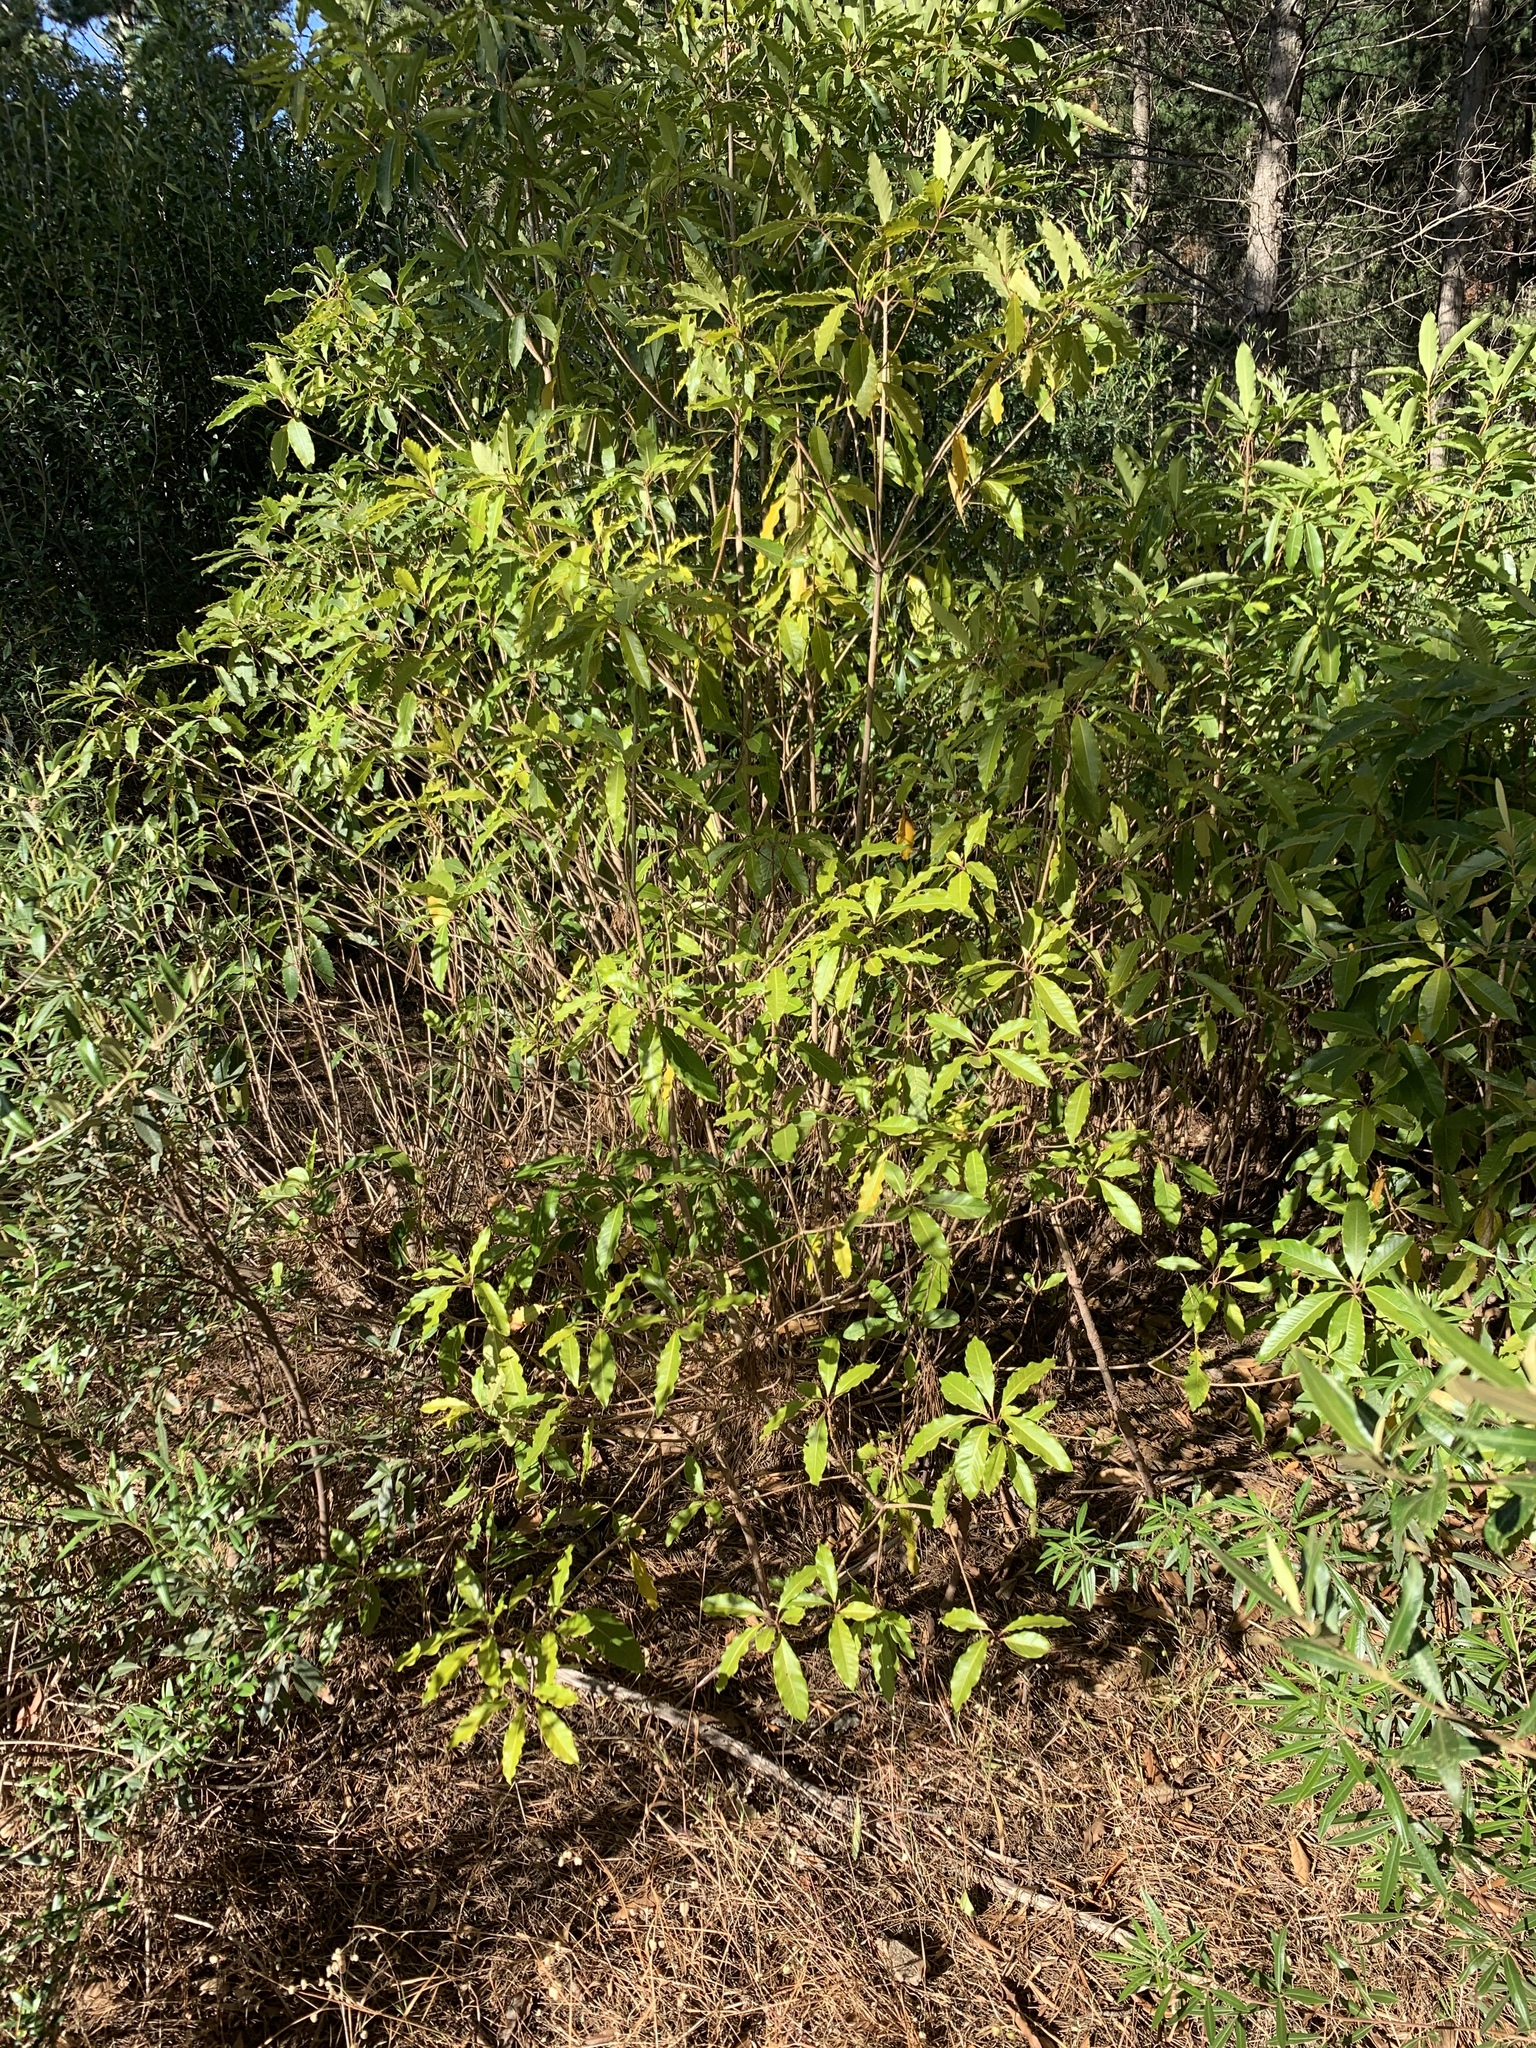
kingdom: Plantae
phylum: Tracheophyta
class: Magnoliopsida
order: Apiales
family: Pittosporaceae
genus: Pittosporum
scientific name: Pittosporum undulatum
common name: Australian cheesewood
